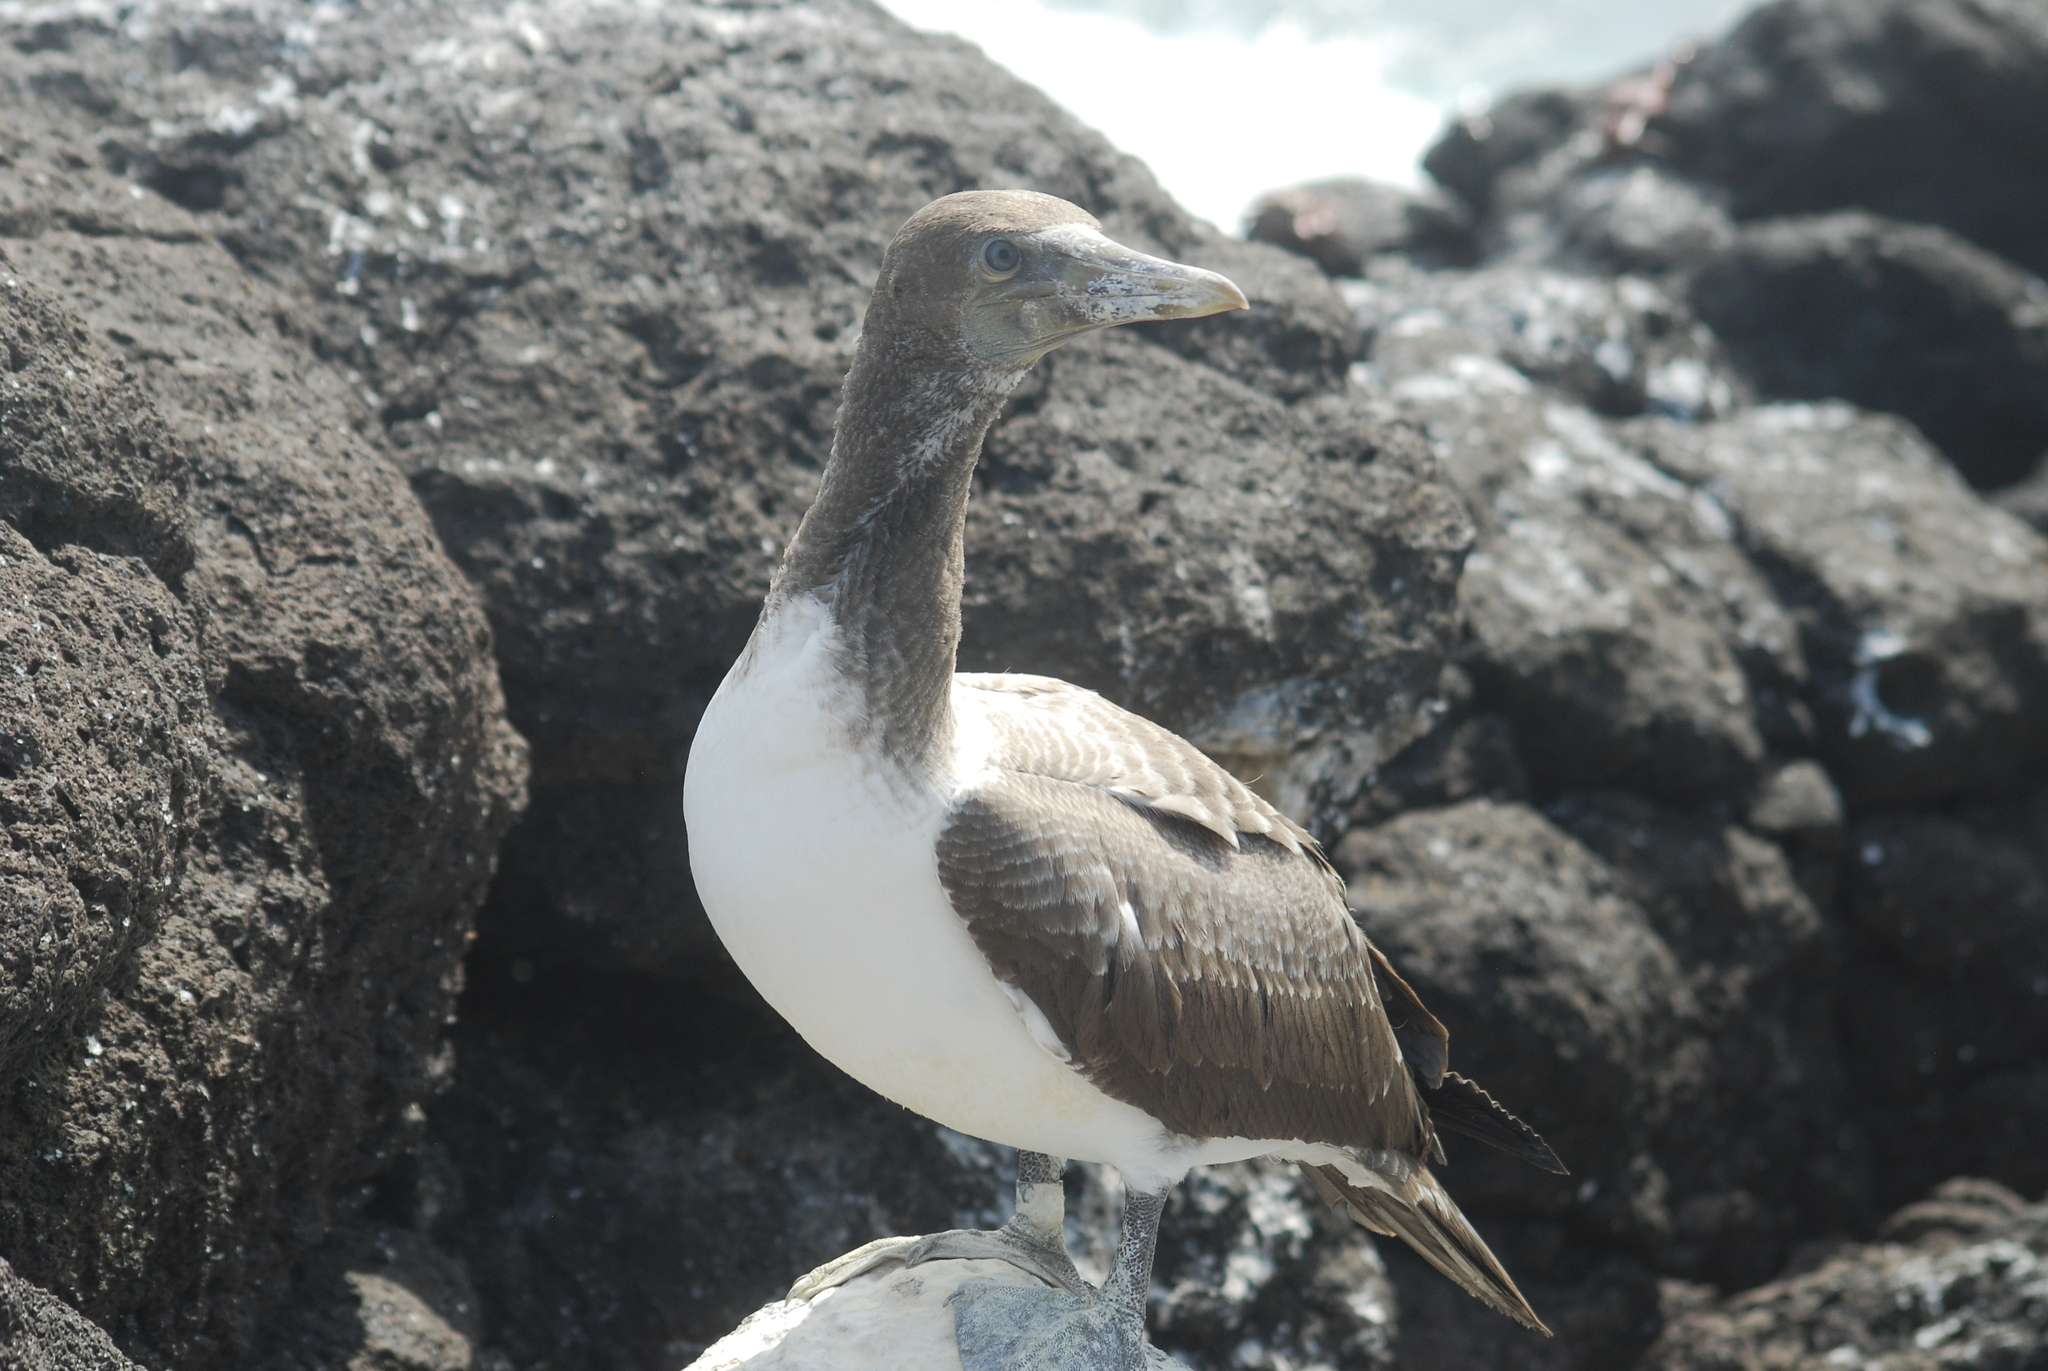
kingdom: Animalia
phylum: Chordata
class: Aves
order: Suliformes
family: Sulidae
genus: Sula
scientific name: Sula granti
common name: Nazca booby
